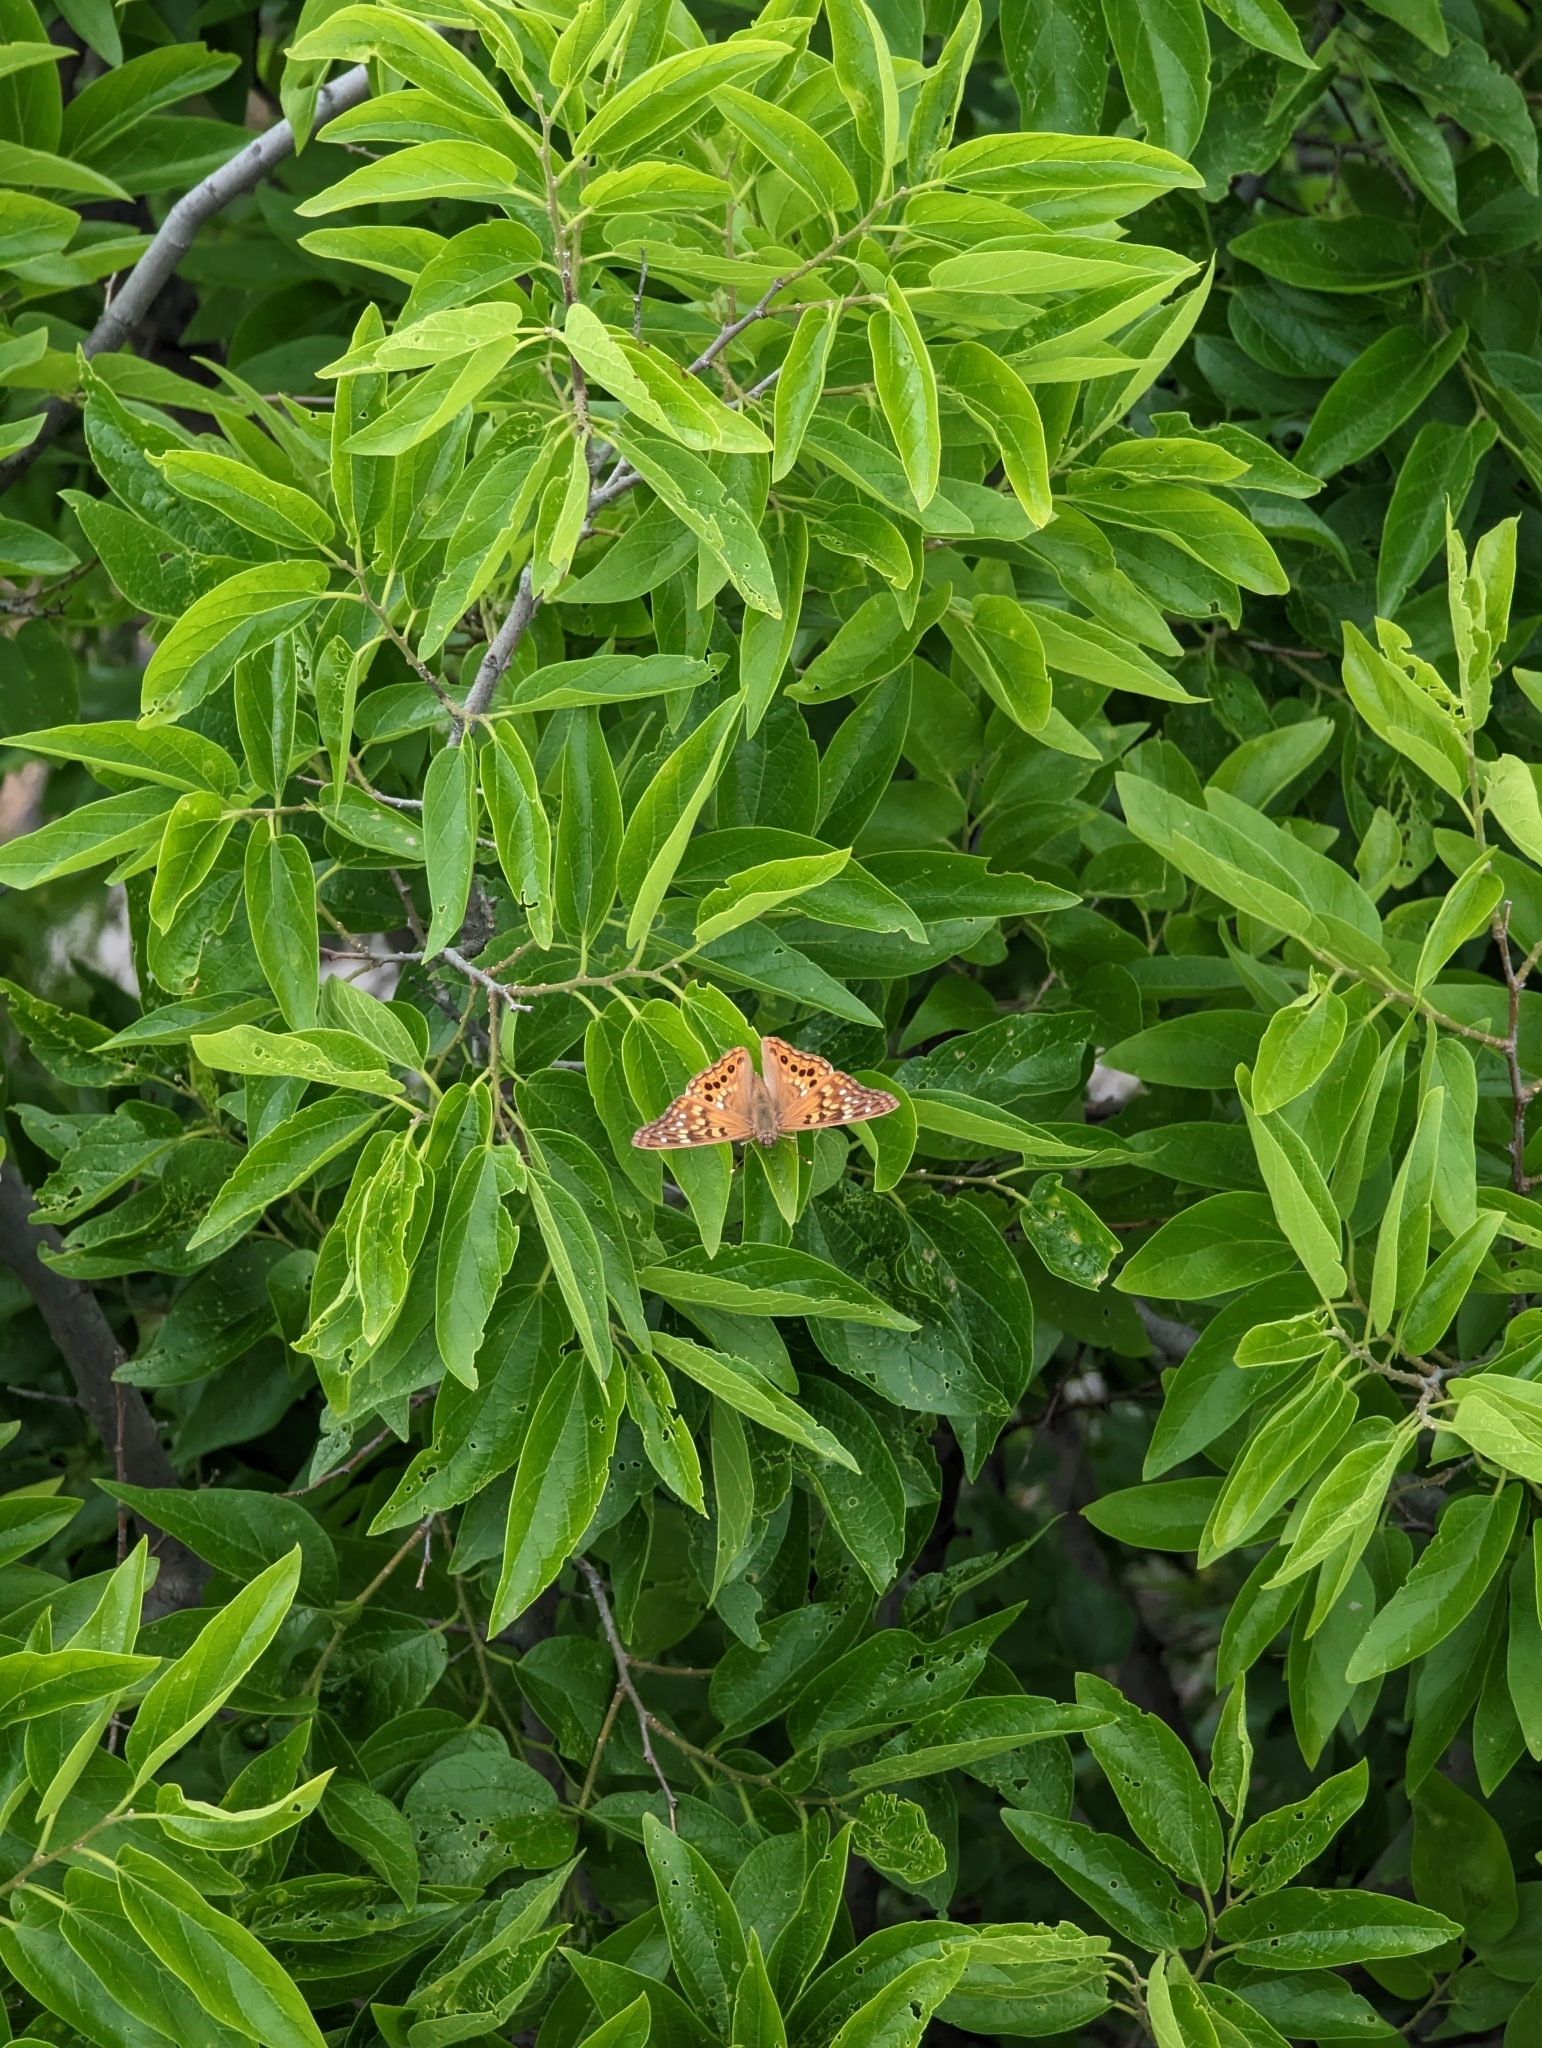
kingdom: Animalia
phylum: Arthropoda
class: Insecta
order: Lepidoptera
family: Nymphalidae
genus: Asterocampa
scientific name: Asterocampa clyton
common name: Tawny emperor
